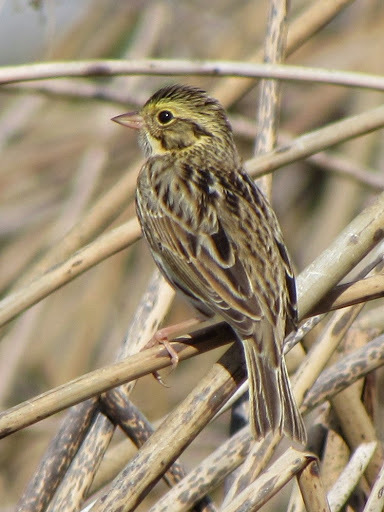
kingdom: Animalia
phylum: Chordata
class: Aves
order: Passeriformes
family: Passerellidae
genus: Passerculus
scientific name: Passerculus sandwichensis
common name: Savannah sparrow
